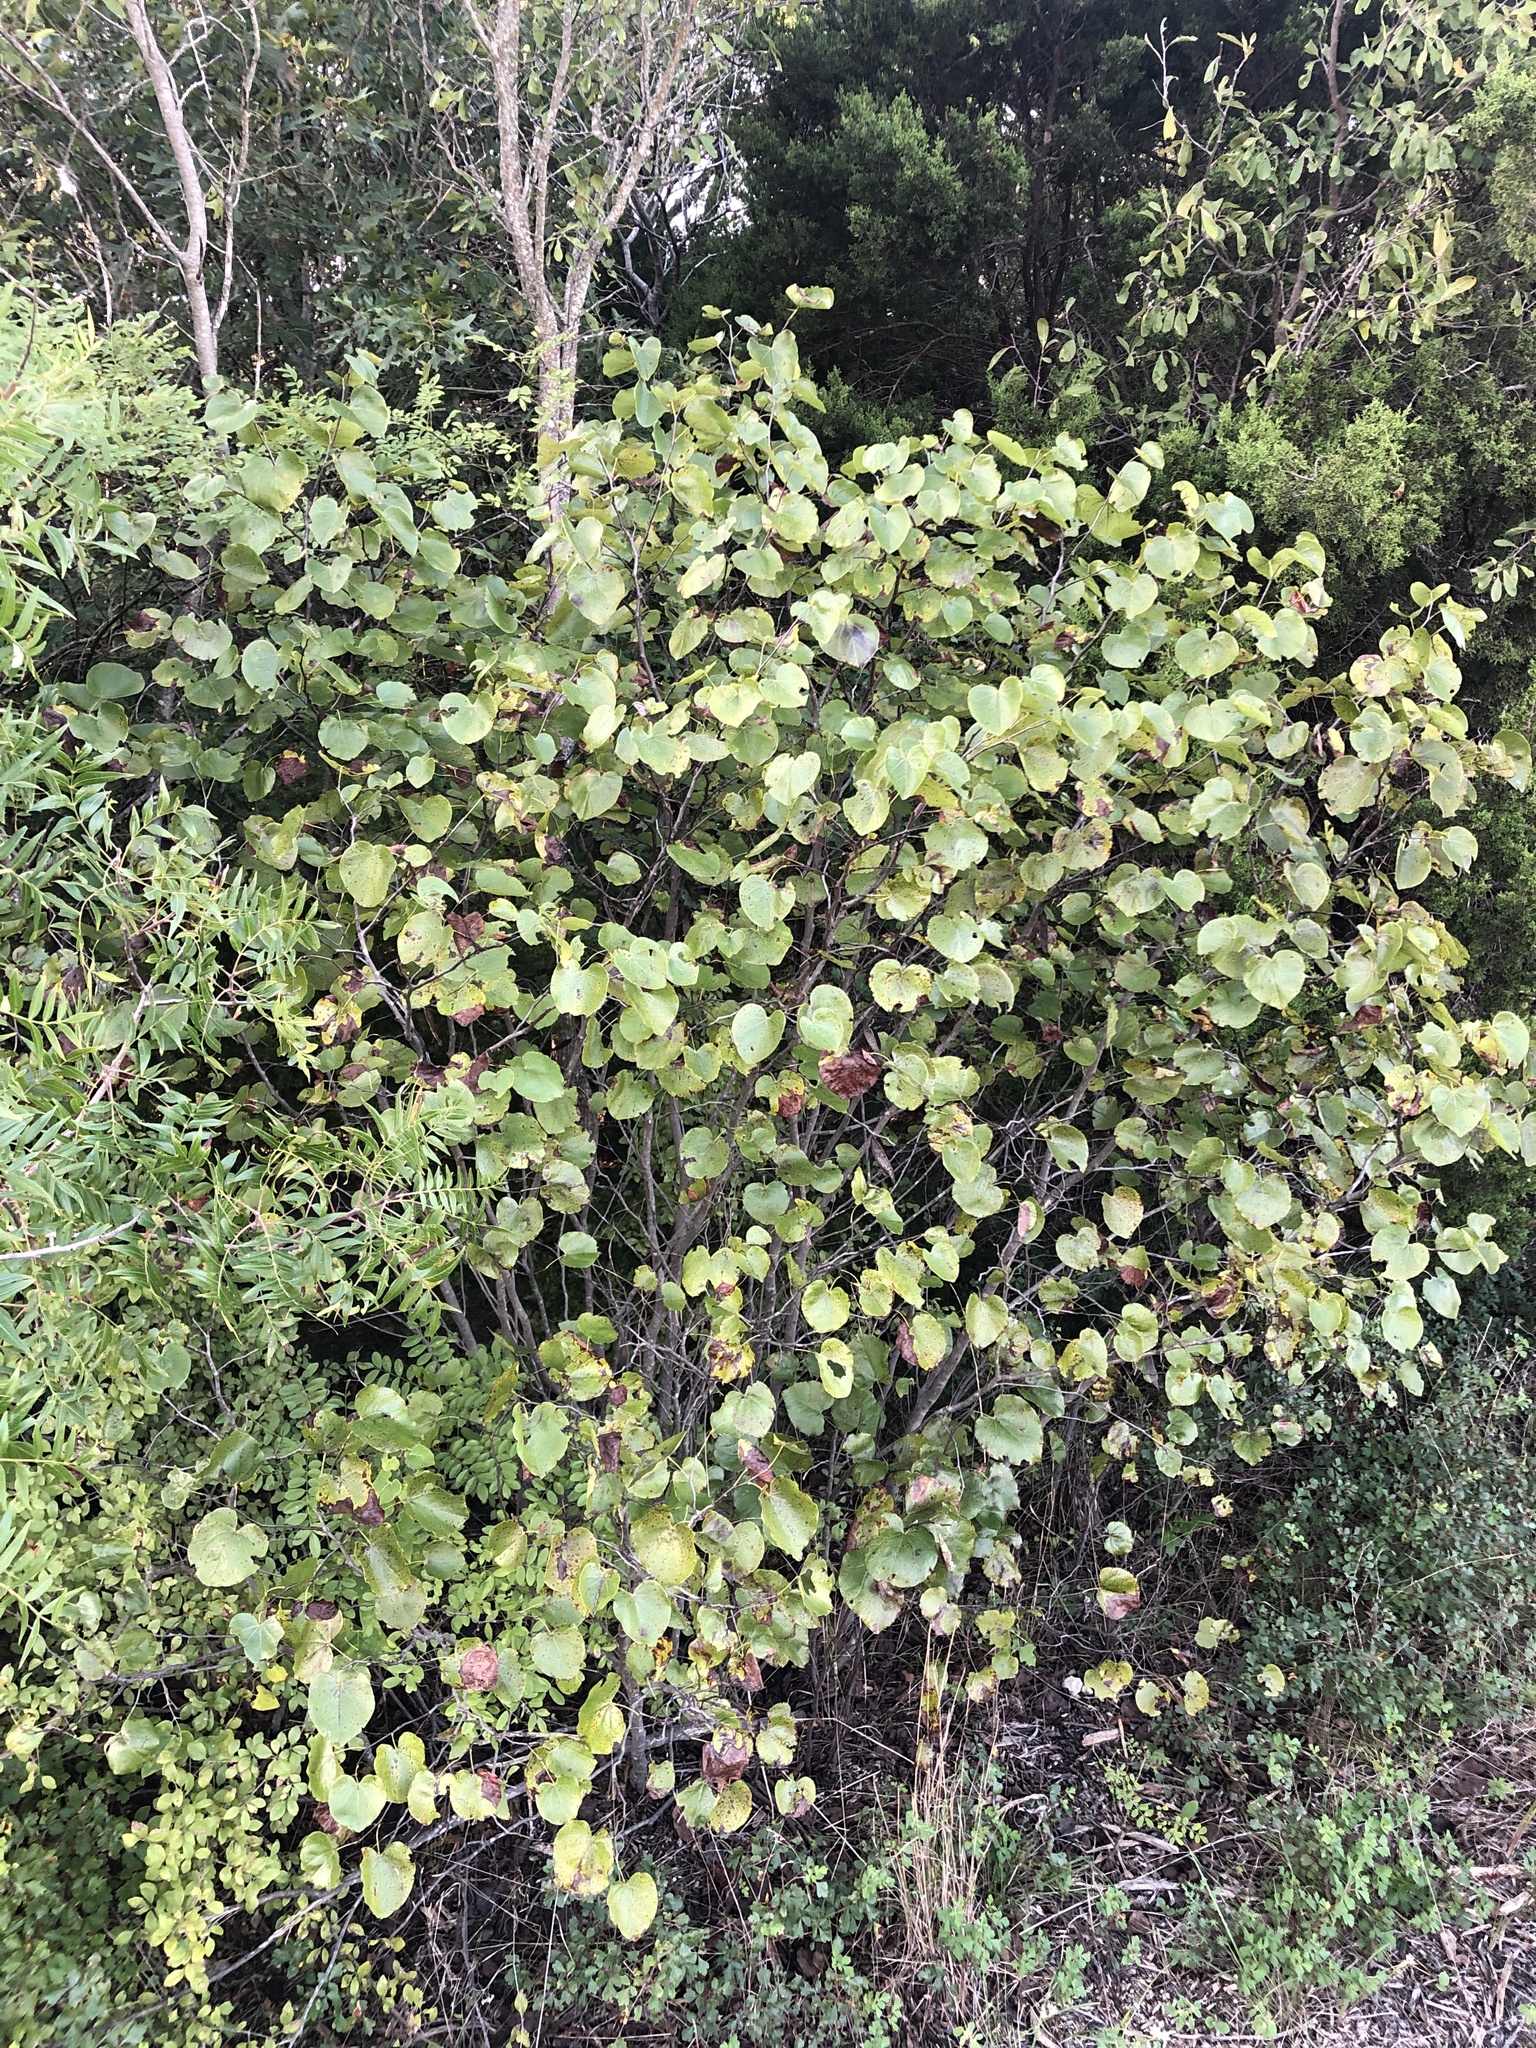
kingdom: Plantae
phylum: Tracheophyta
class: Magnoliopsida
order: Fabales
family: Fabaceae
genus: Cercis
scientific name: Cercis canadensis
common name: Eastern redbud
